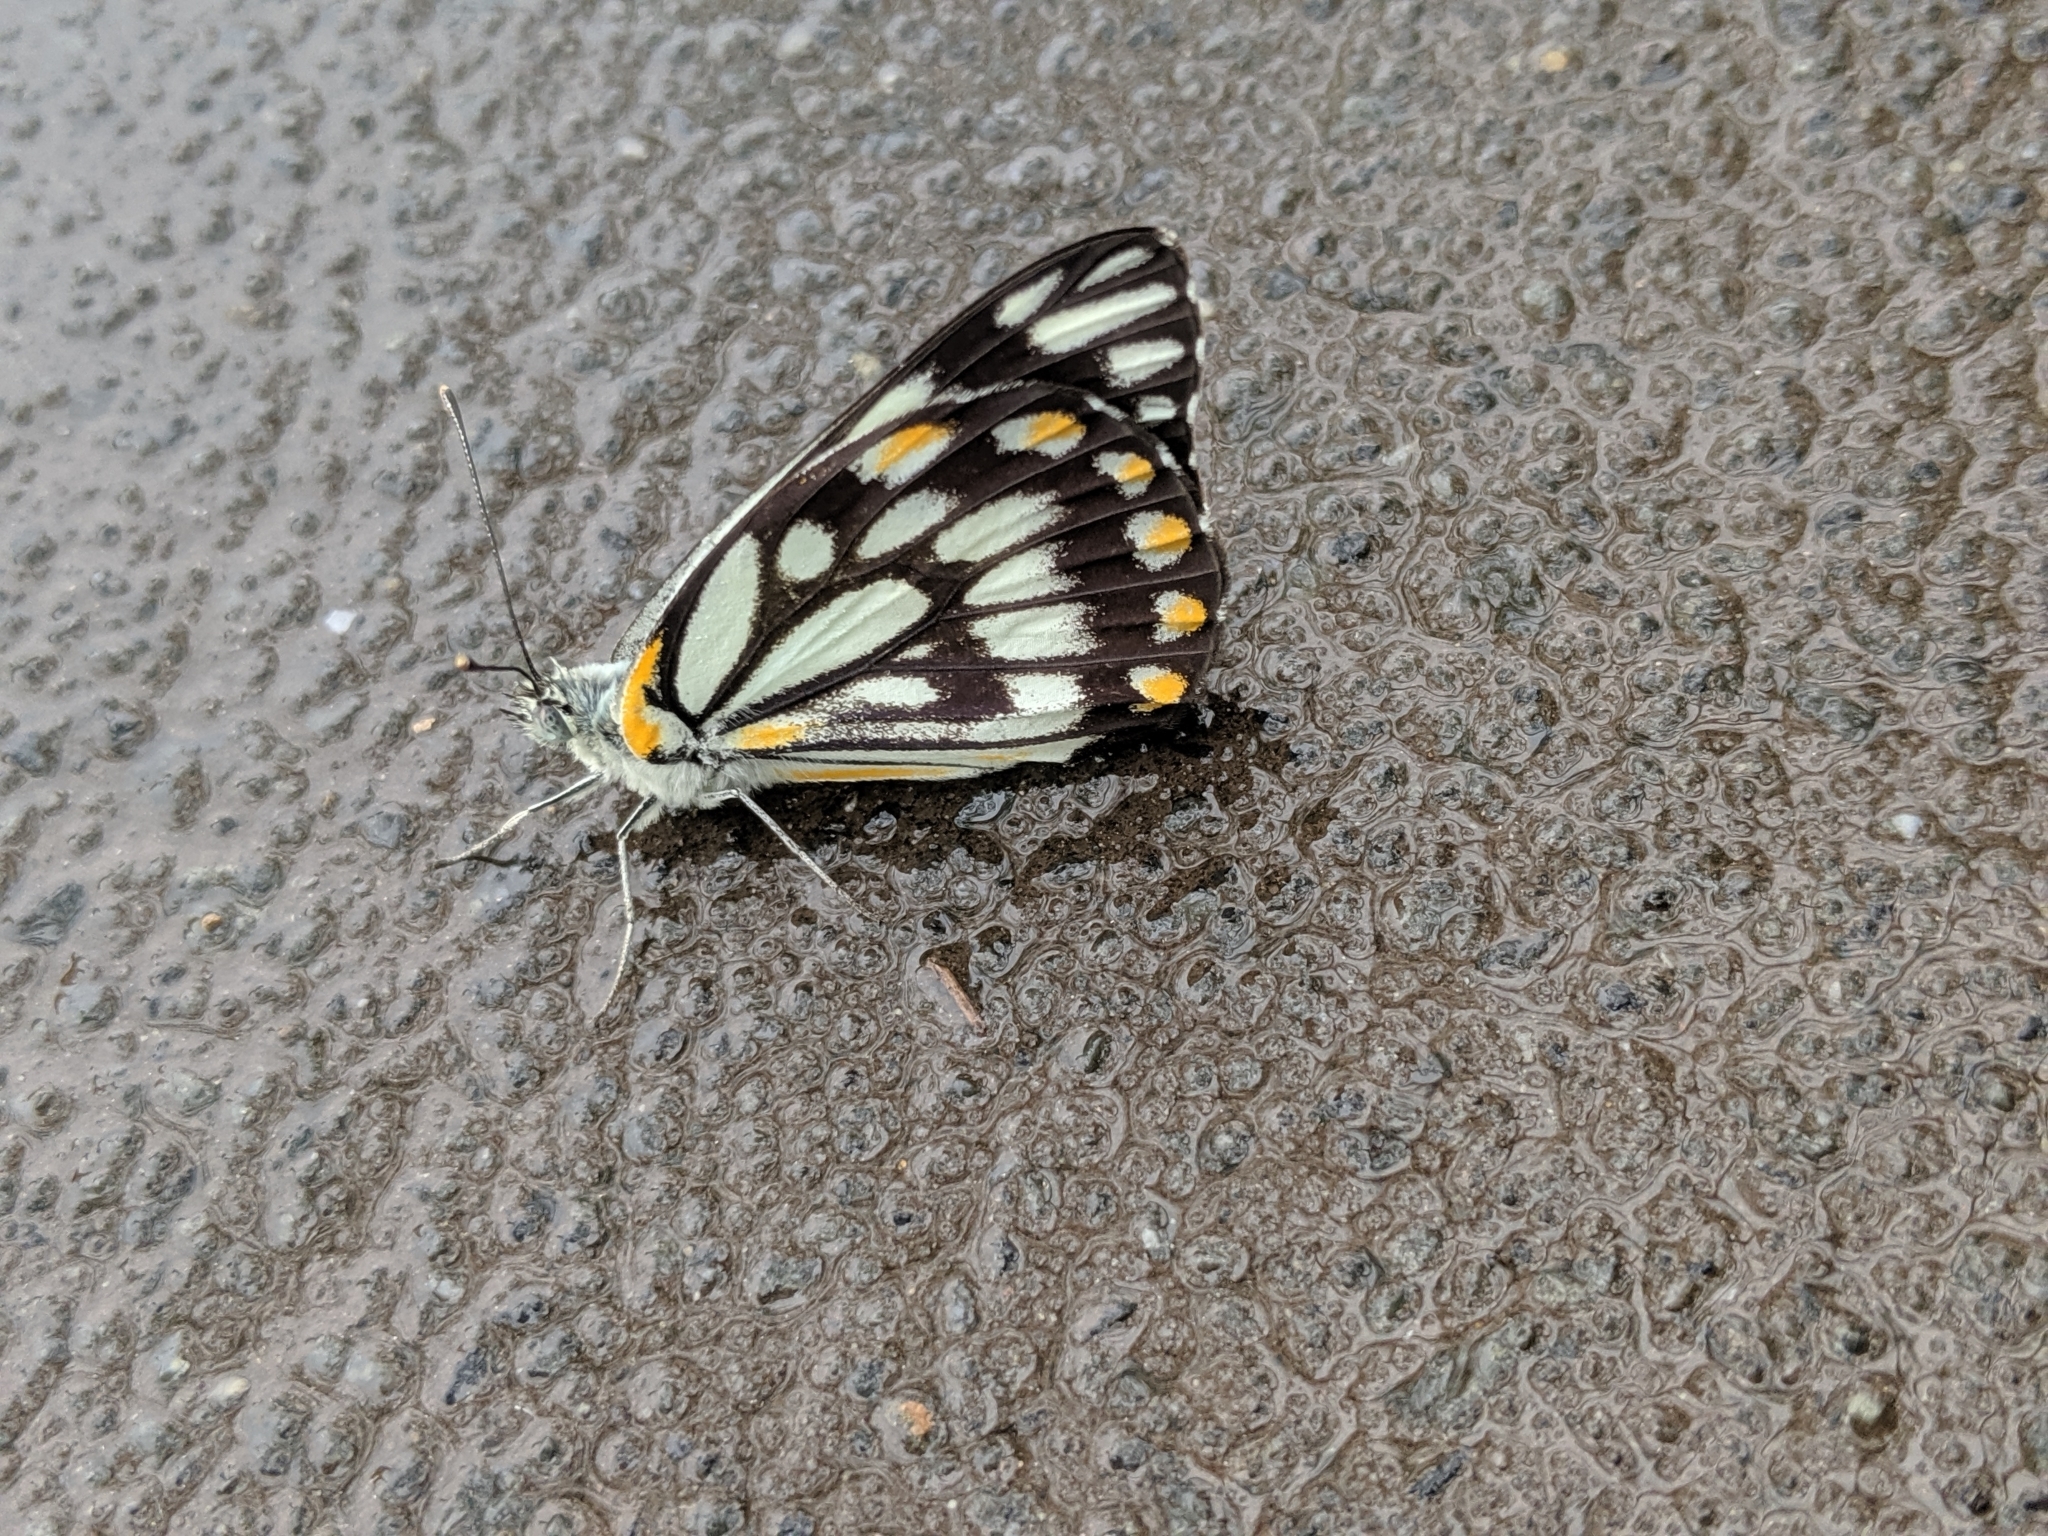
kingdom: Animalia
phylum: Arthropoda
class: Insecta
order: Lepidoptera
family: Pieridae
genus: Belenois
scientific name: Belenois java
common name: Caper white
